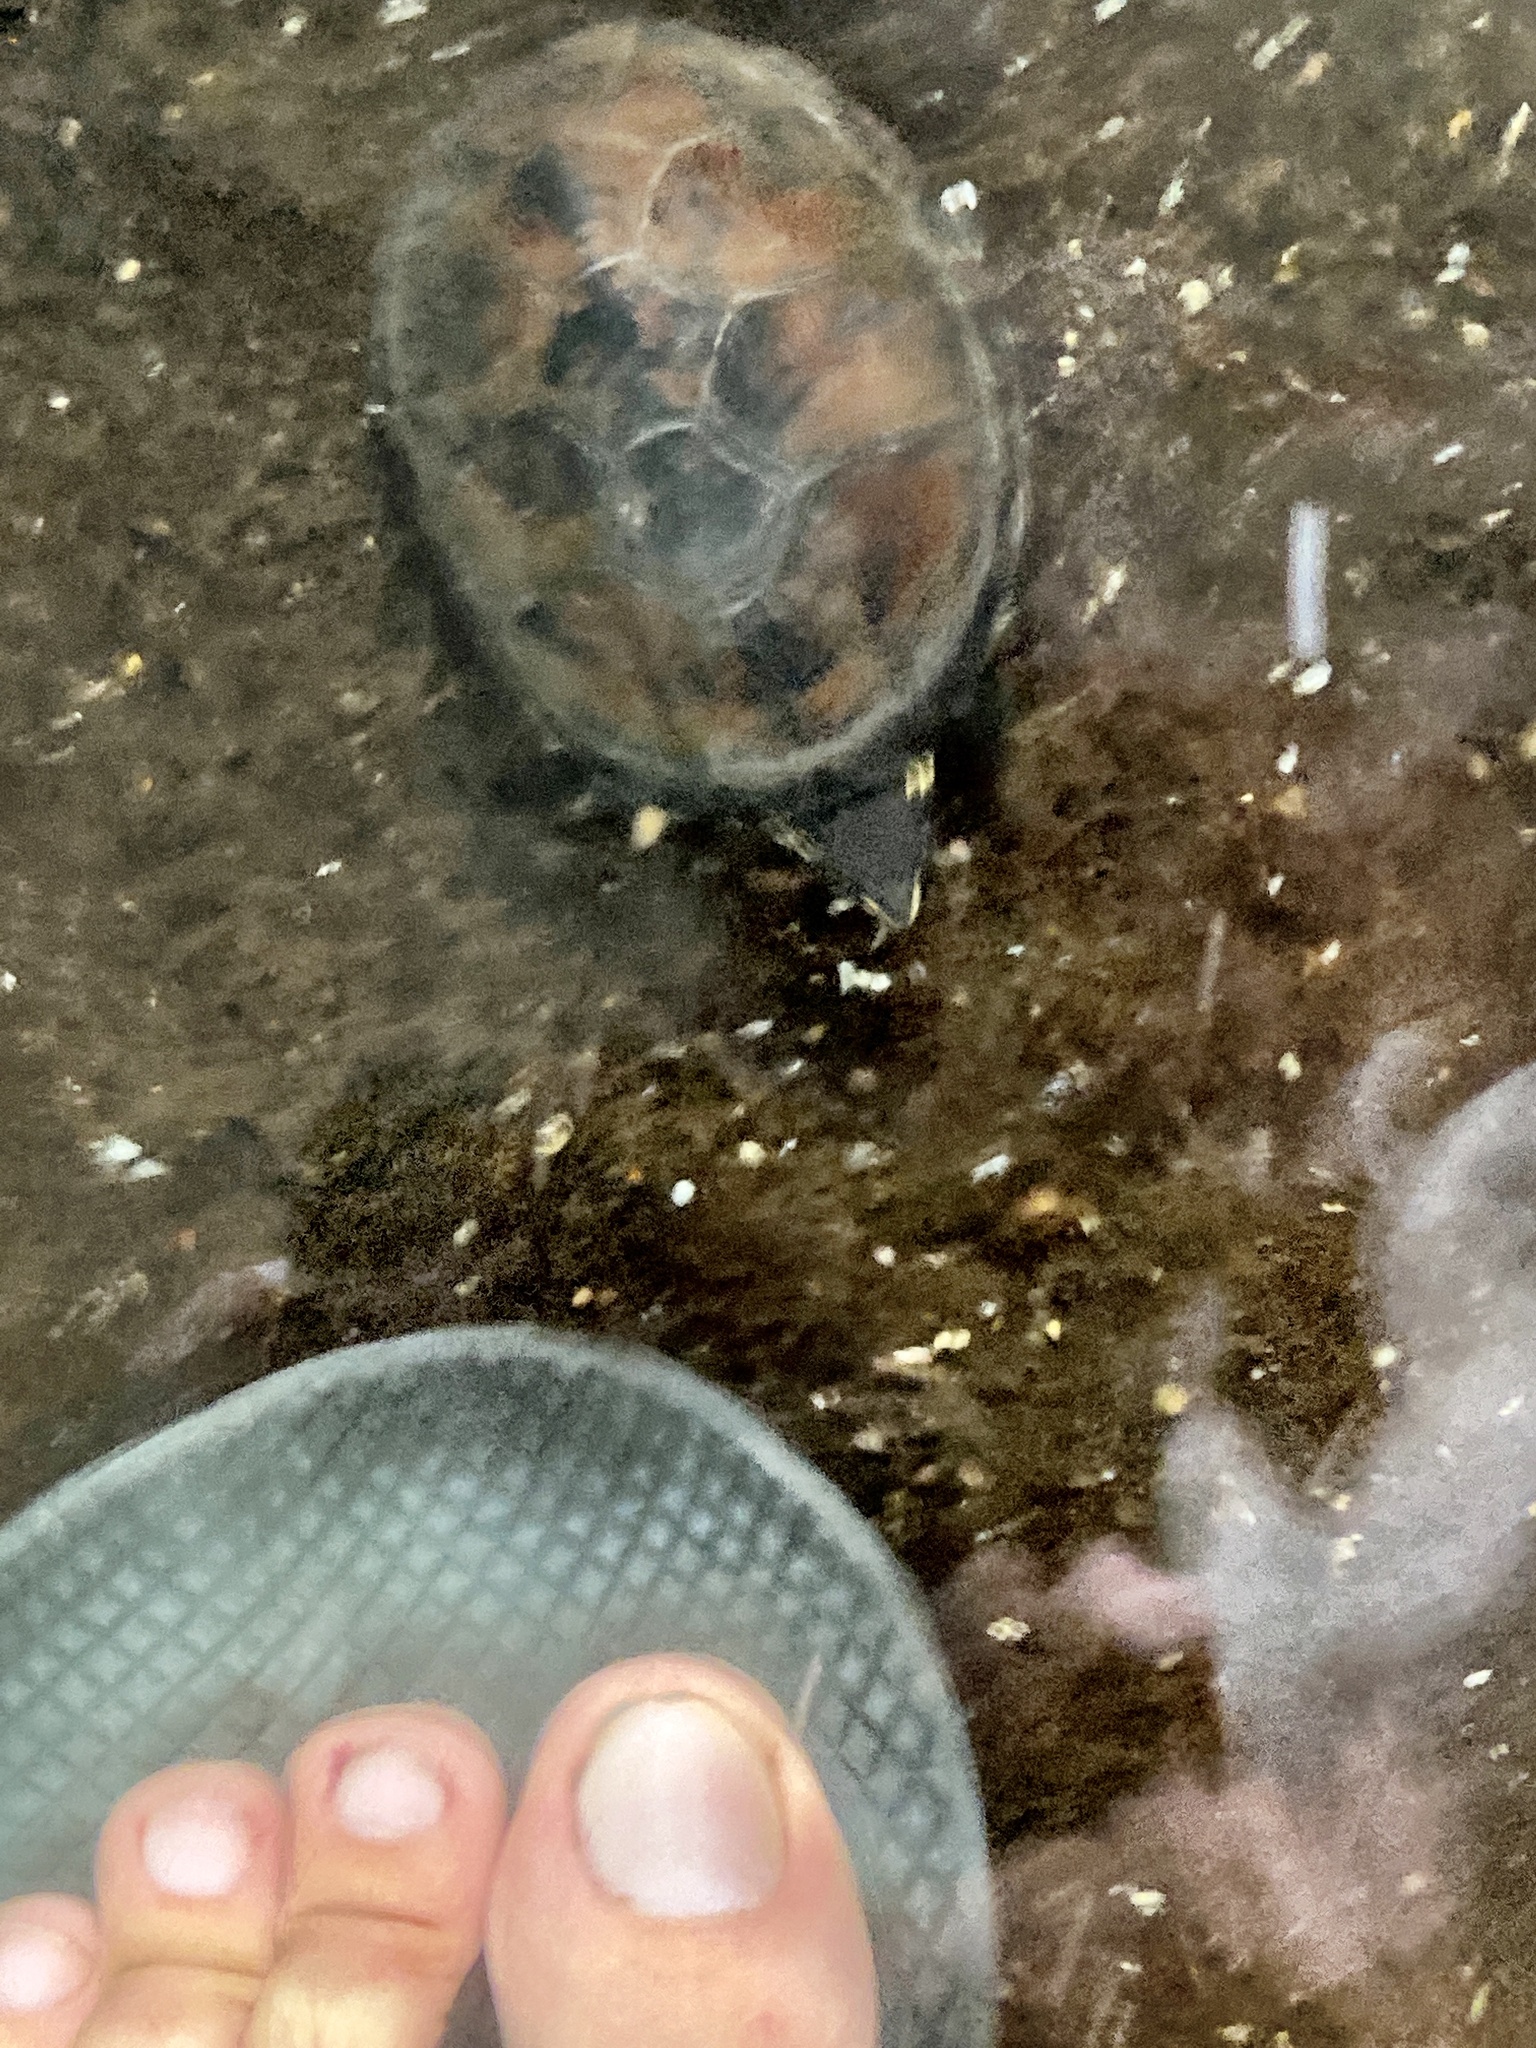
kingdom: Animalia
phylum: Chordata
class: Testudines
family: Kinosternidae
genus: Sternotherus
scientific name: Sternotherus odoratus
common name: Common musk turtle
